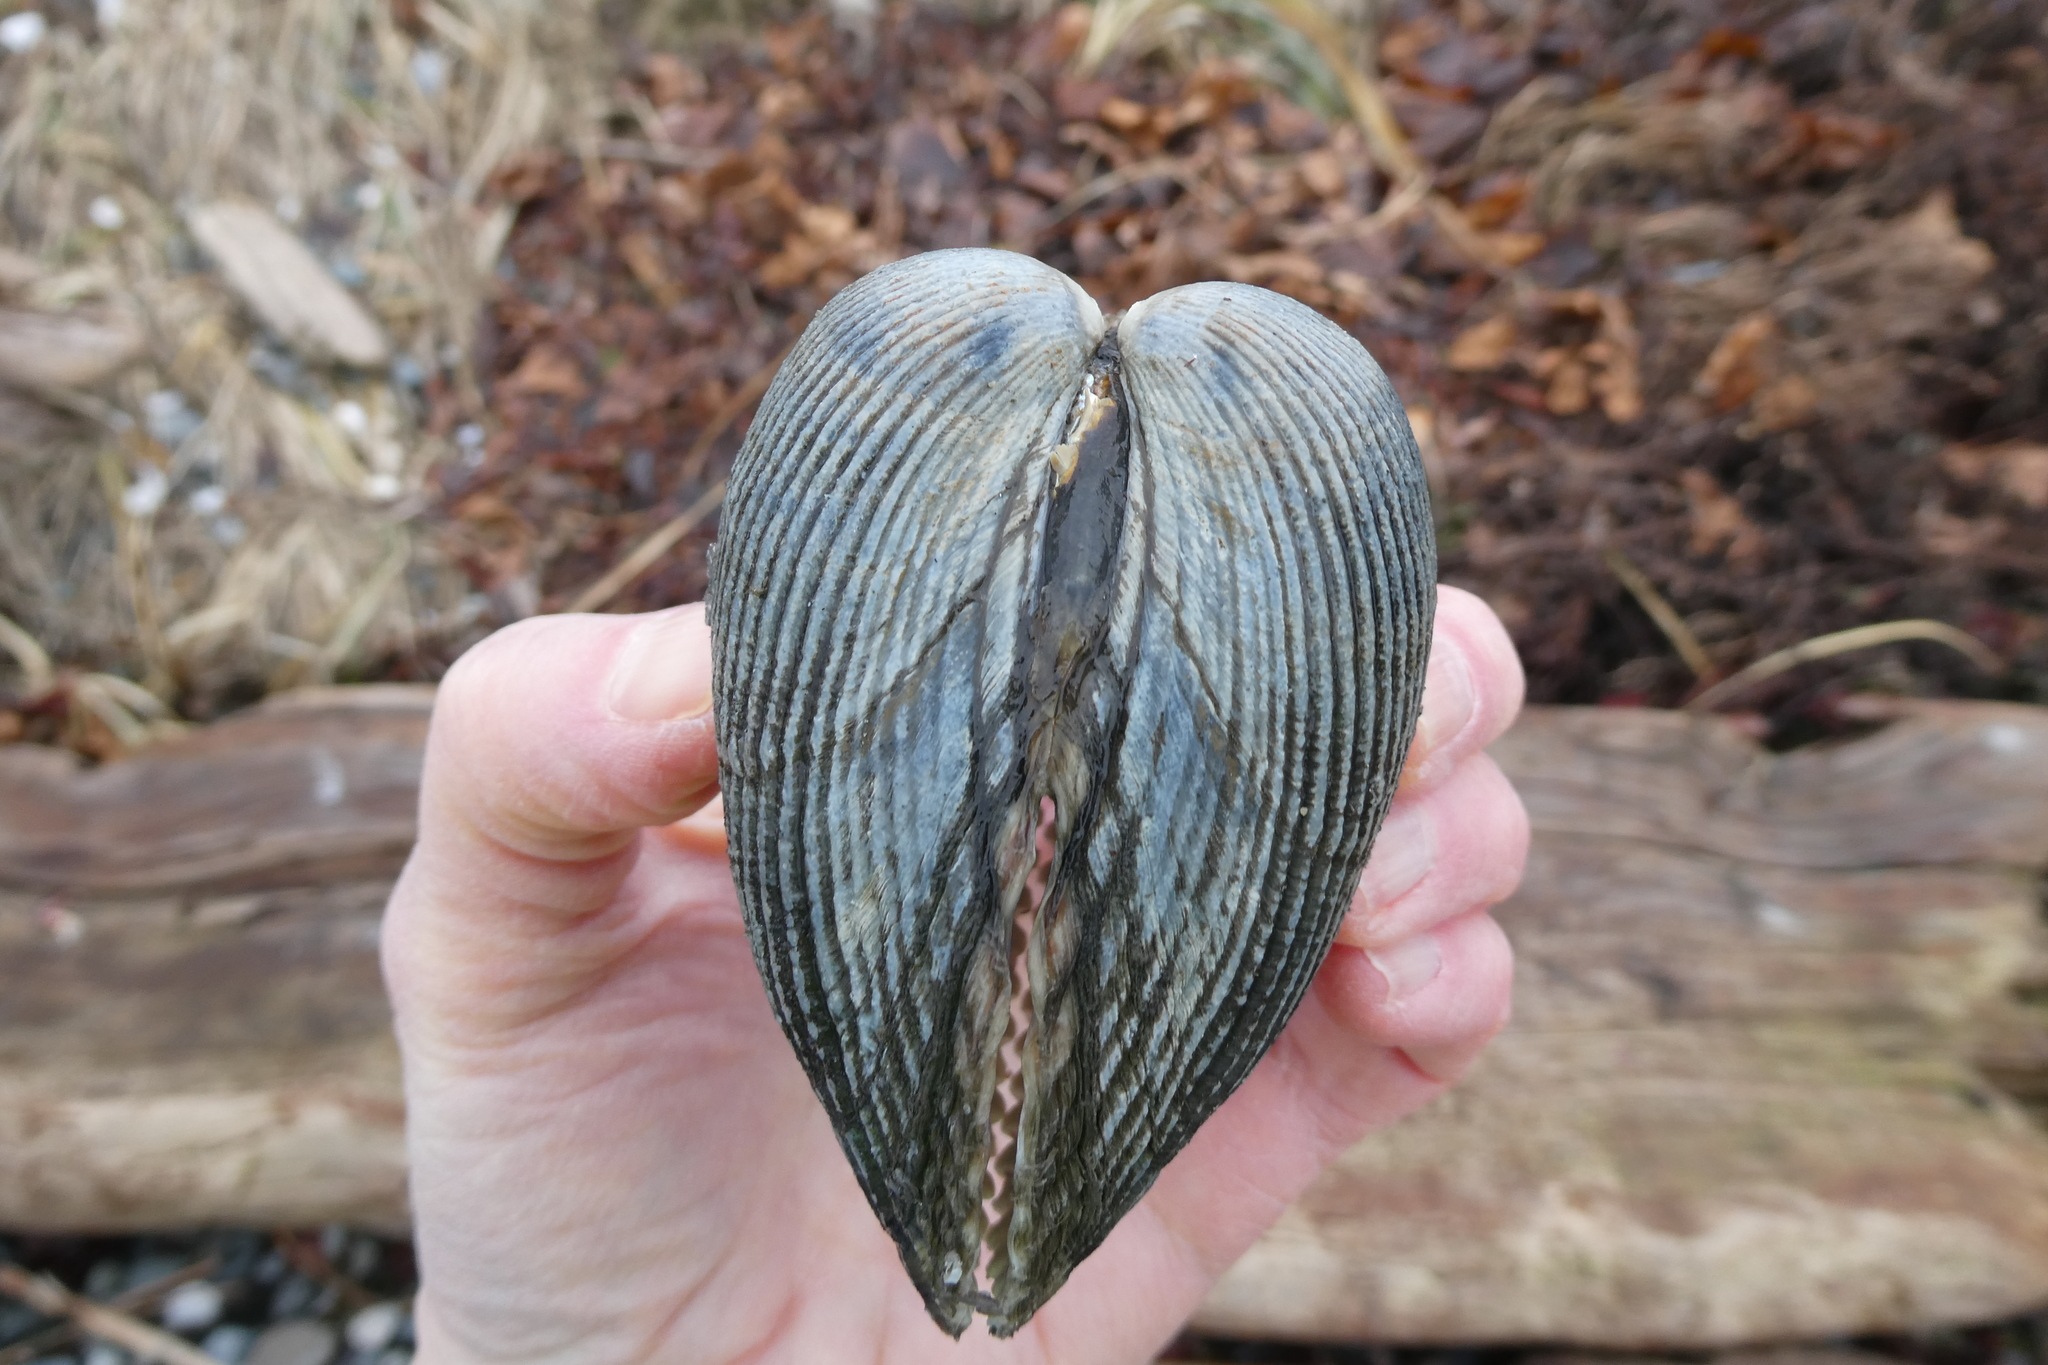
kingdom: Animalia
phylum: Mollusca
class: Bivalvia
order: Cardiida
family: Cardiidae
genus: Clinocardium
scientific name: Clinocardium nuttallii
